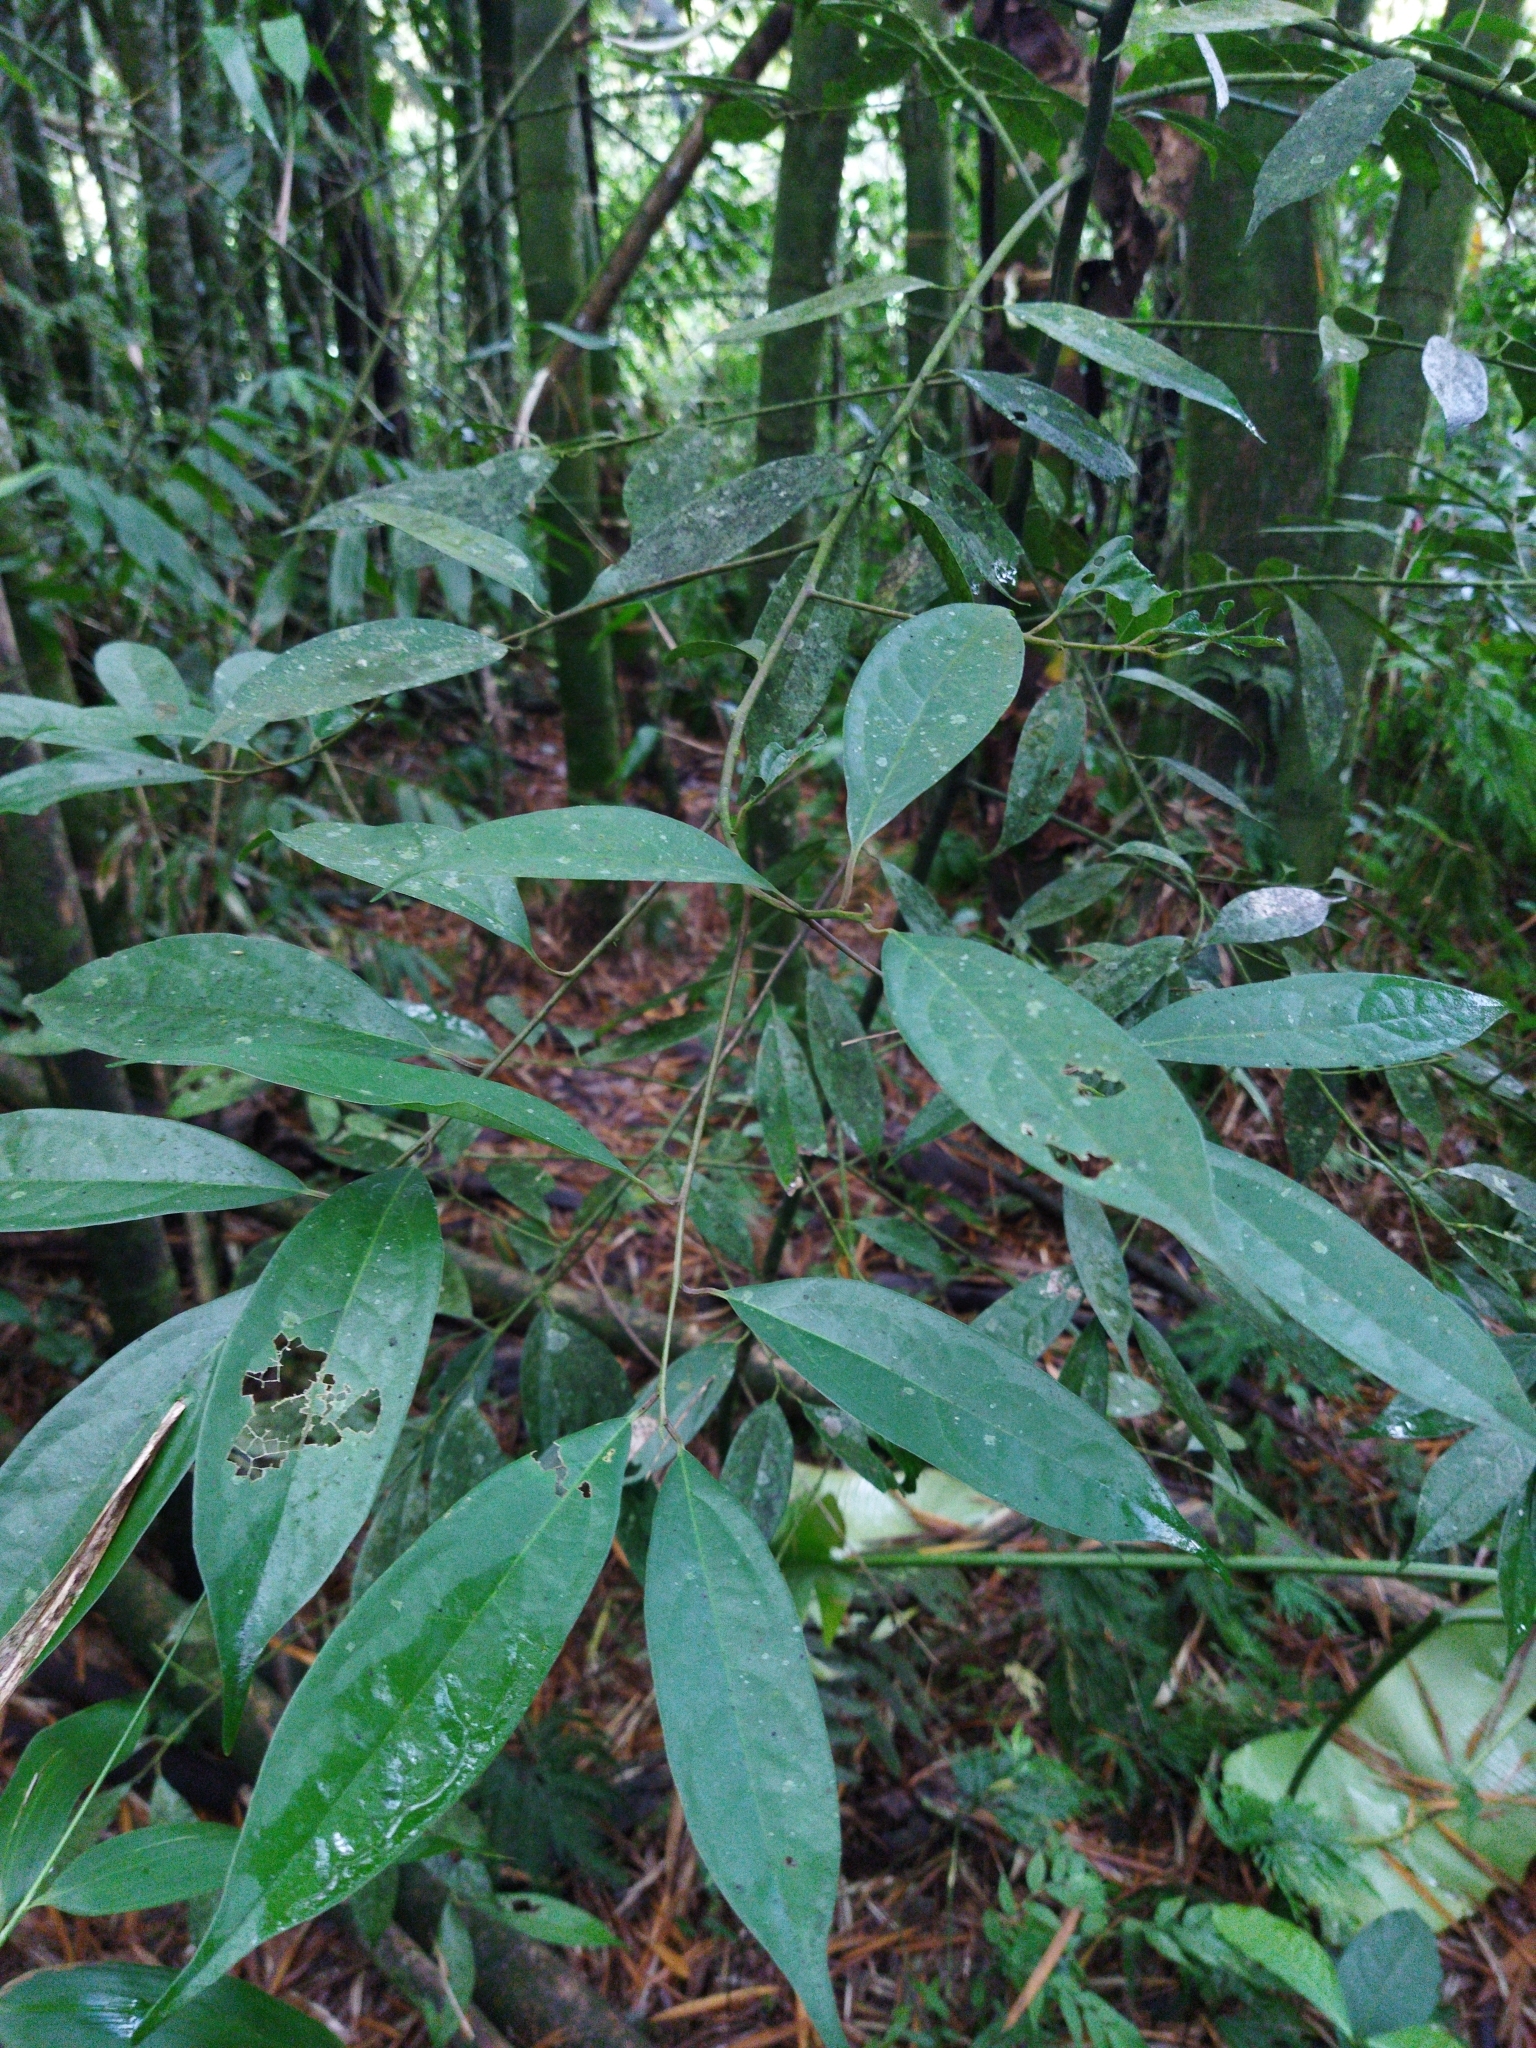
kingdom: Plantae
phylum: Tracheophyta
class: Magnoliopsida
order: Laurales
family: Lauraceae
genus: Aiouea
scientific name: Aiouea montana
